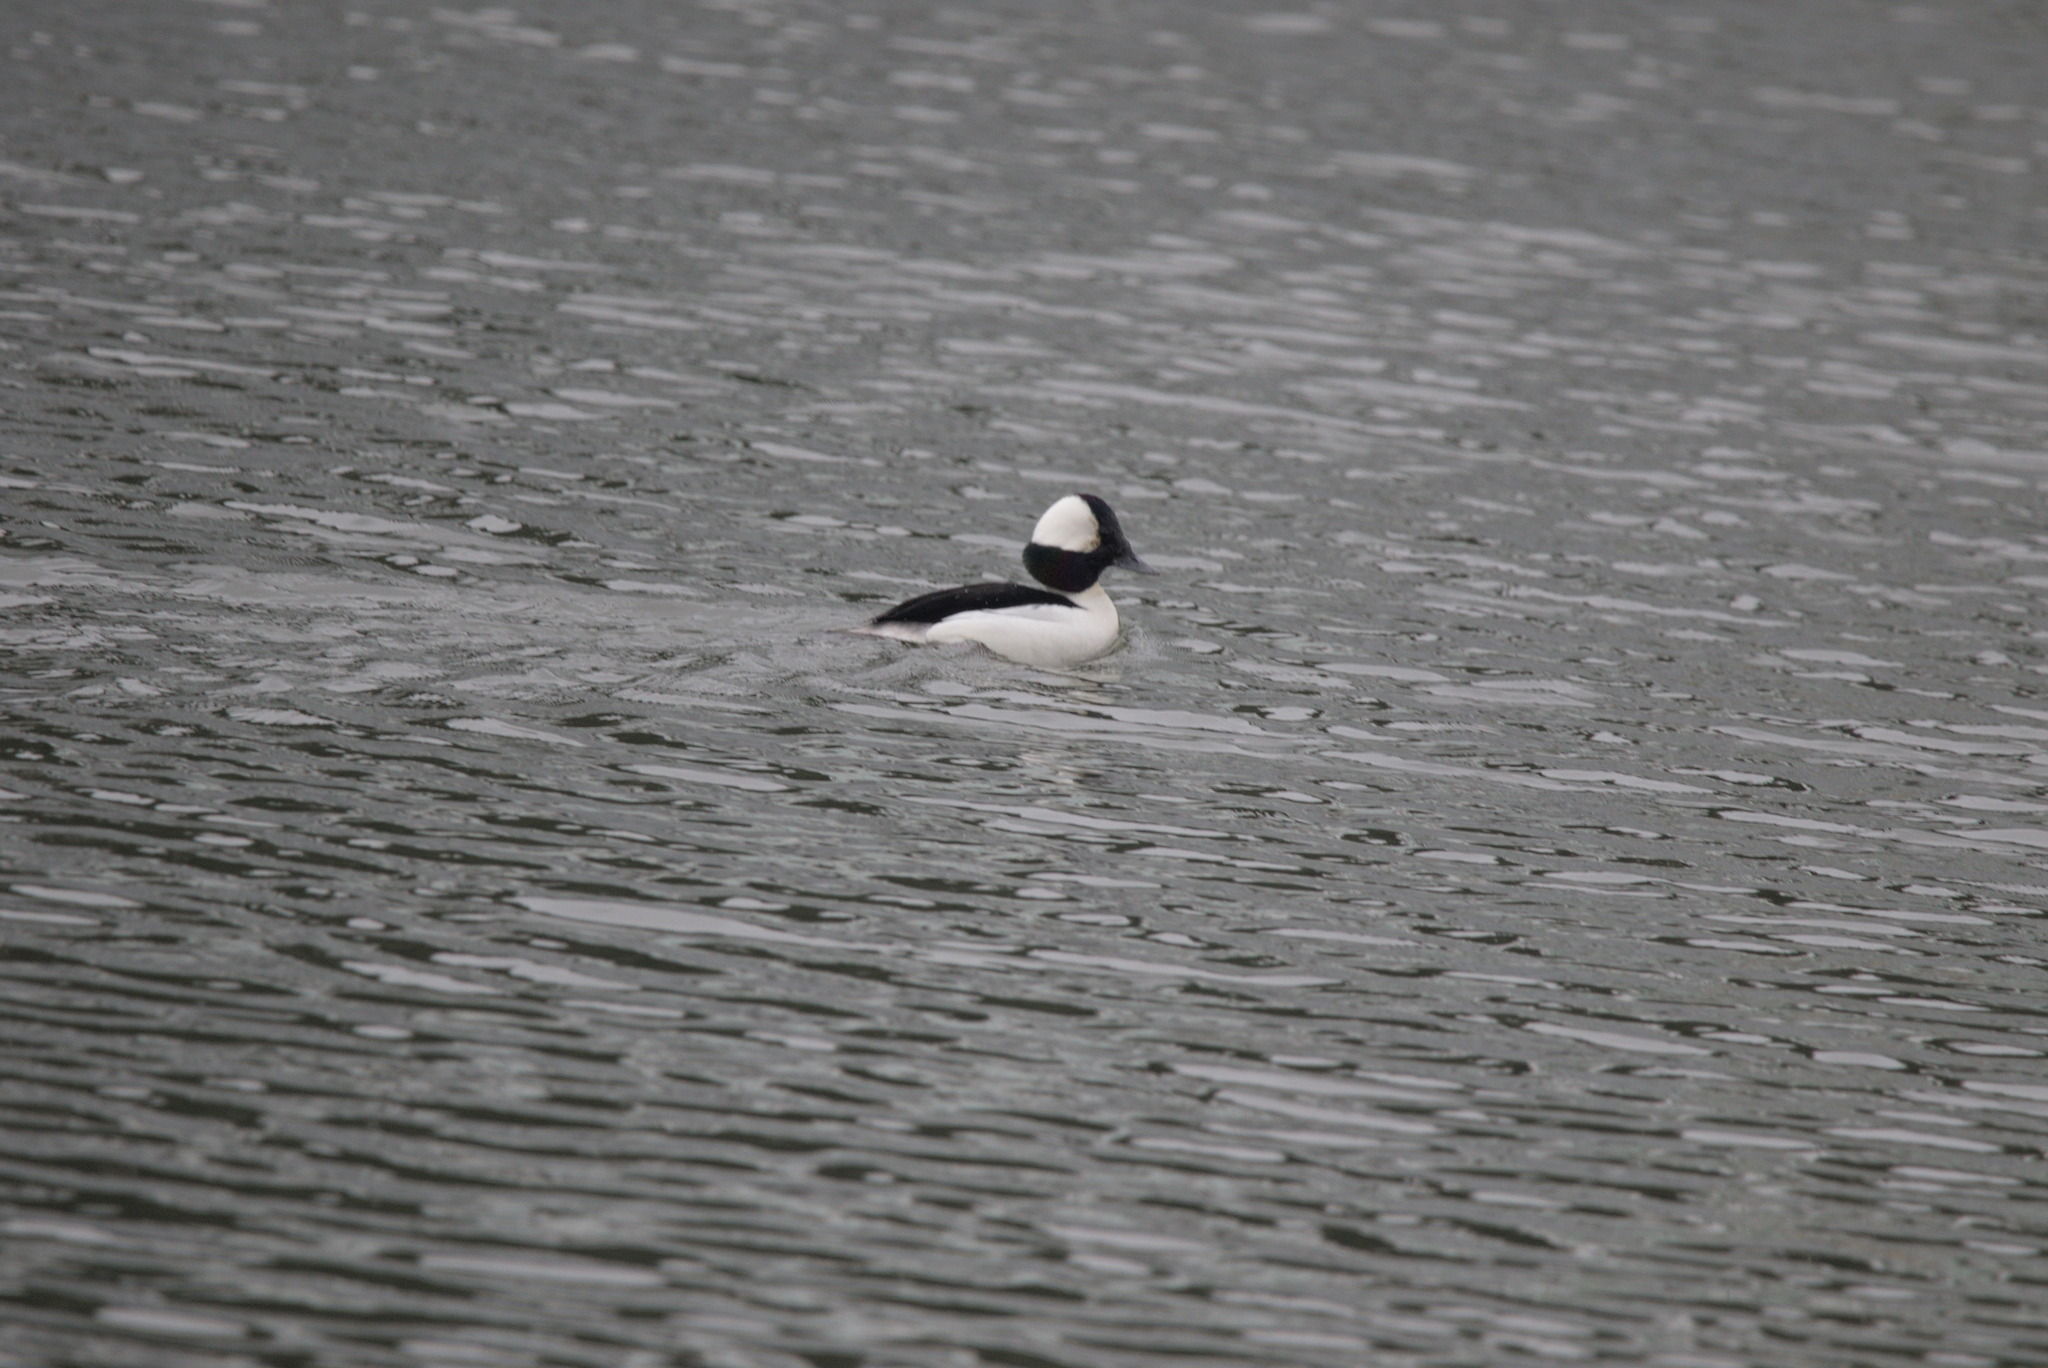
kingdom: Animalia
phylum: Chordata
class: Aves
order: Anseriformes
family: Anatidae
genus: Bucephala
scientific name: Bucephala albeola
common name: Bufflehead
